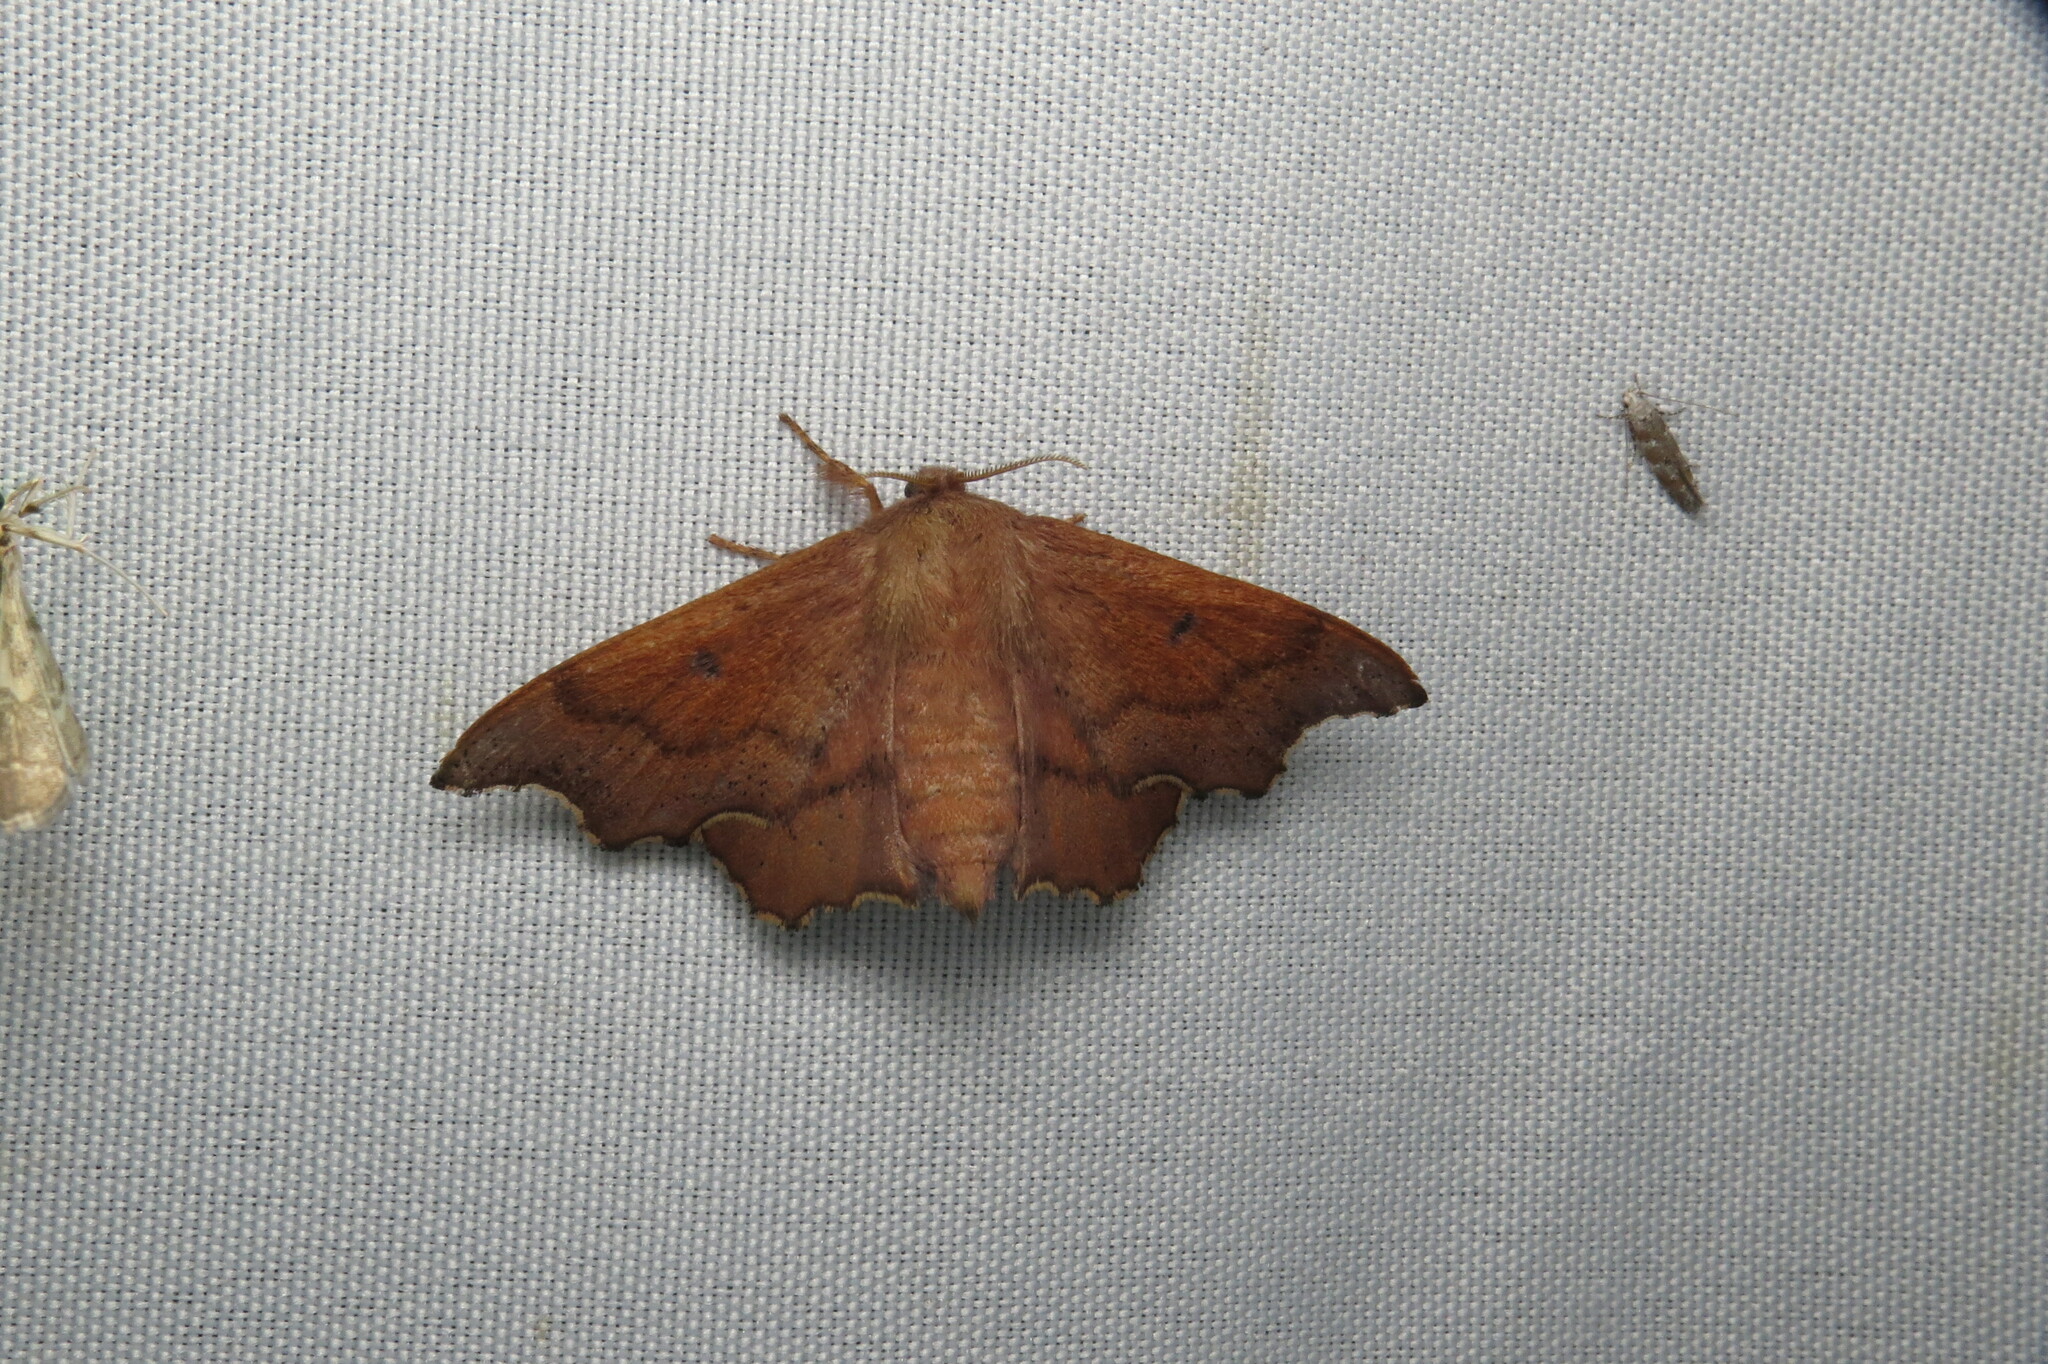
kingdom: Animalia
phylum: Arthropoda
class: Insecta
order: Lepidoptera
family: Mimallonidae
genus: Lacosoma
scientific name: Lacosoma chiridota
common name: Scalloped sack-bearer moth
